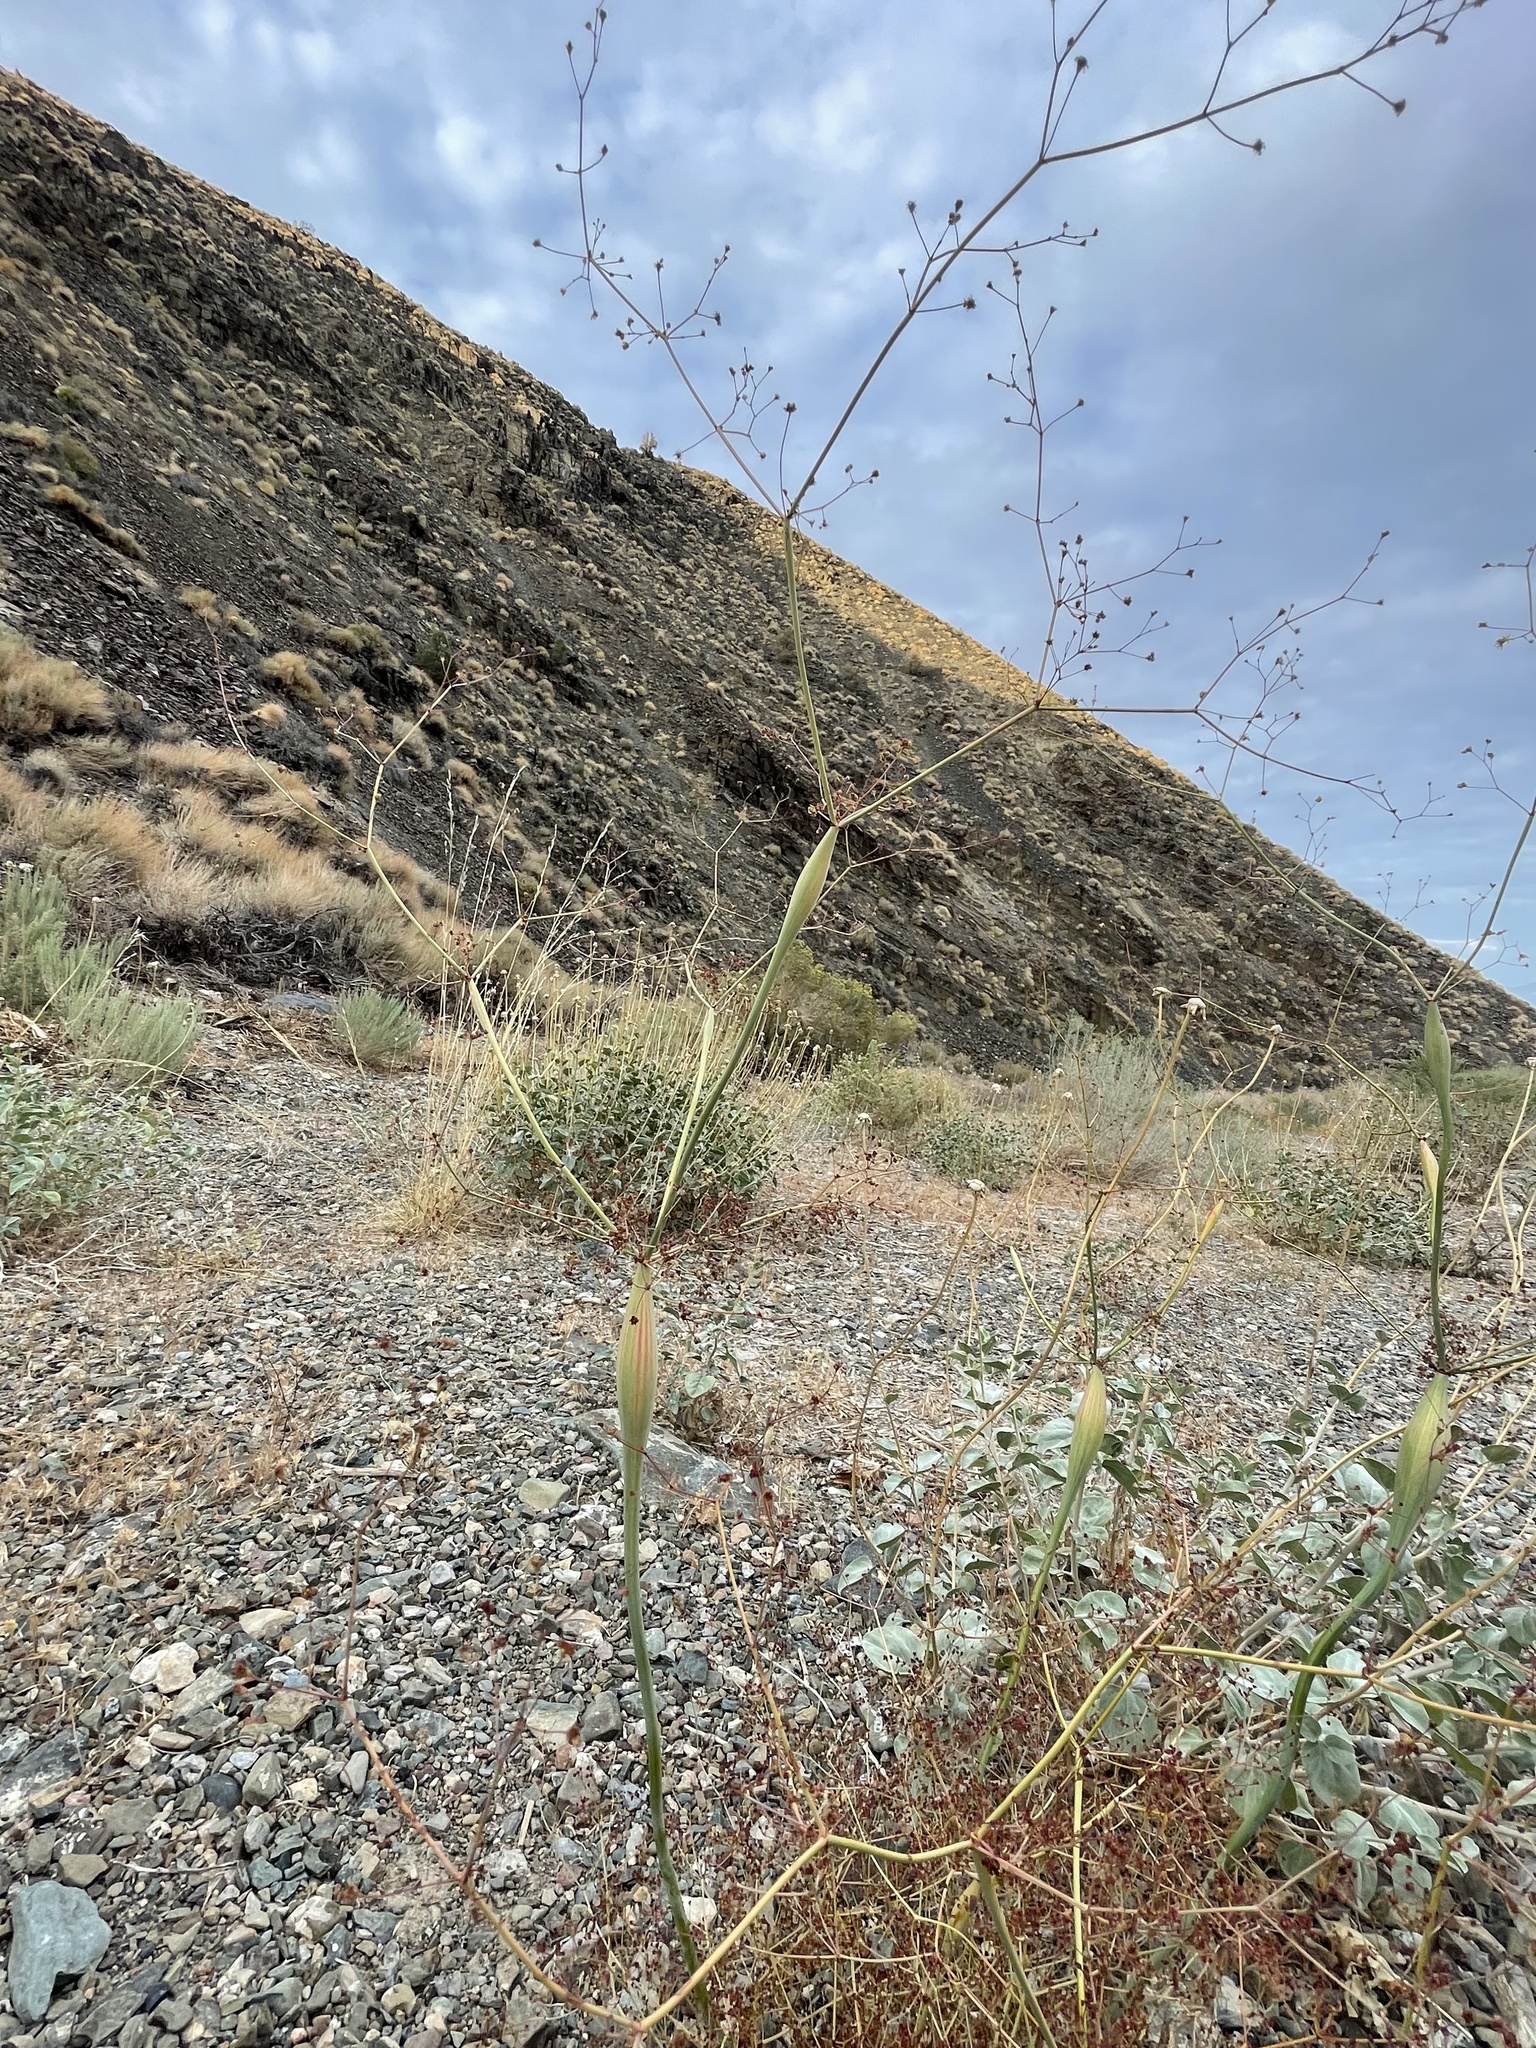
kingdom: Plantae
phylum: Tracheophyta
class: Magnoliopsida
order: Caryophyllales
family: Polygonaceae
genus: Eriogonum
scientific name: Eriogonum inflatum
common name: Desert trumpet
